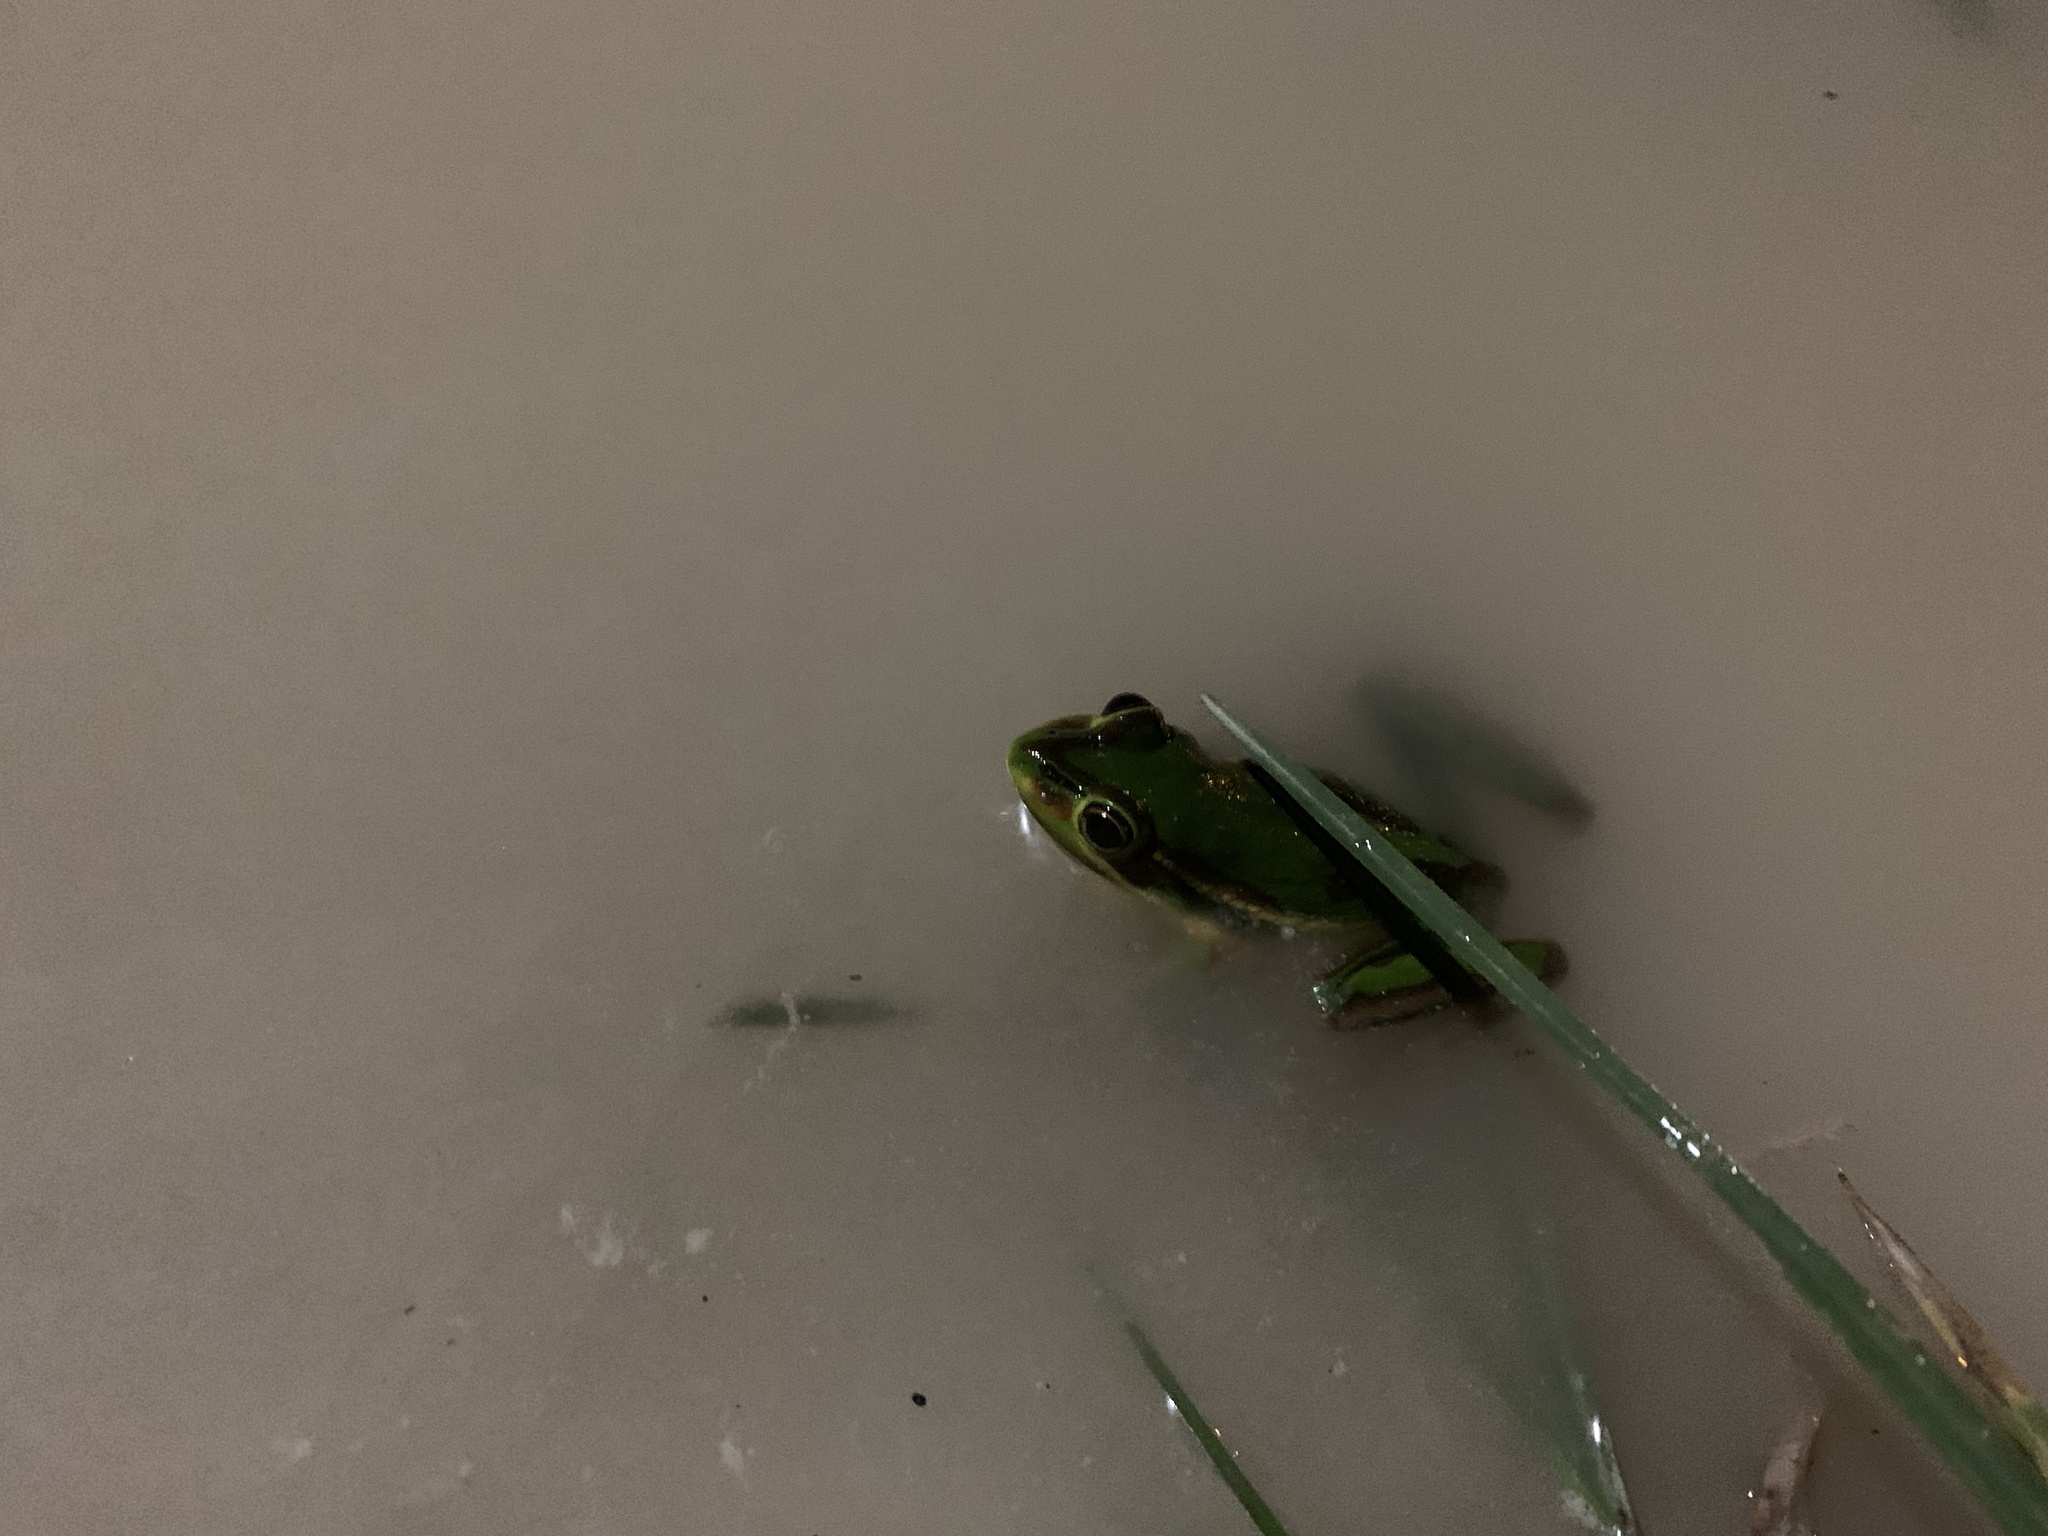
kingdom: Animalia
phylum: Chordata
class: Amphibia
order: Anura
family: Pelodryadidae
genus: Ranoidea
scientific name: Ranoidea aurea
